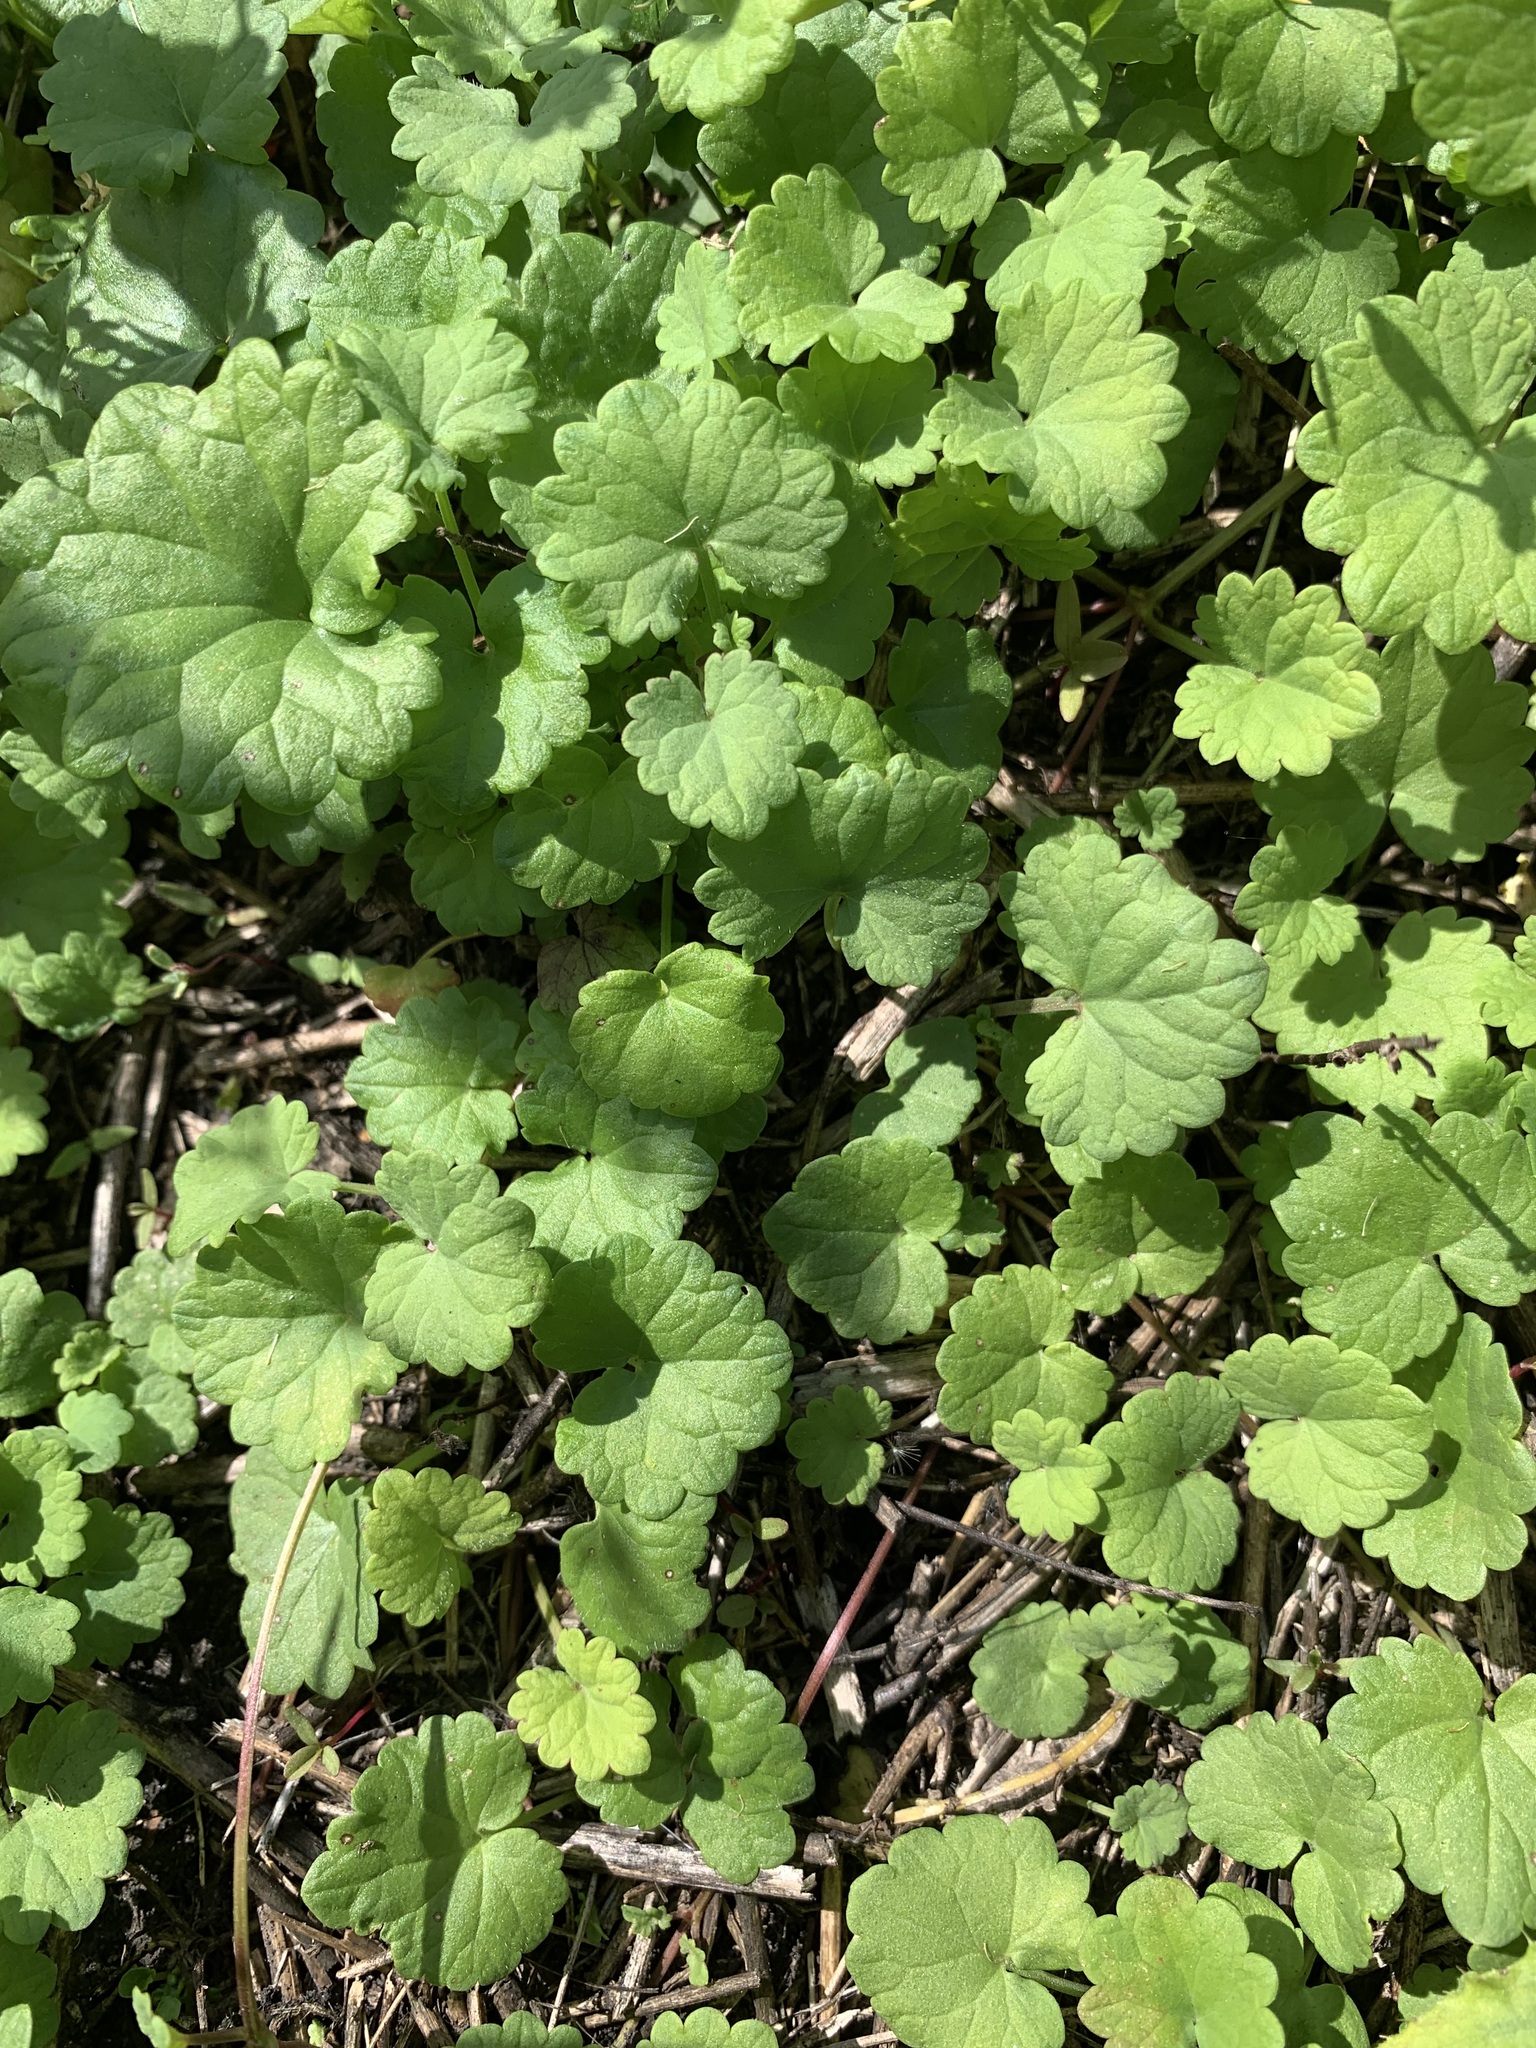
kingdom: Plantae
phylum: Tracheophyta
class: Magnoliopsida
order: Lamiales
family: Lamiaceae
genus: Glechoma
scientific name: Glechoma hederacea
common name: Ground ivy
